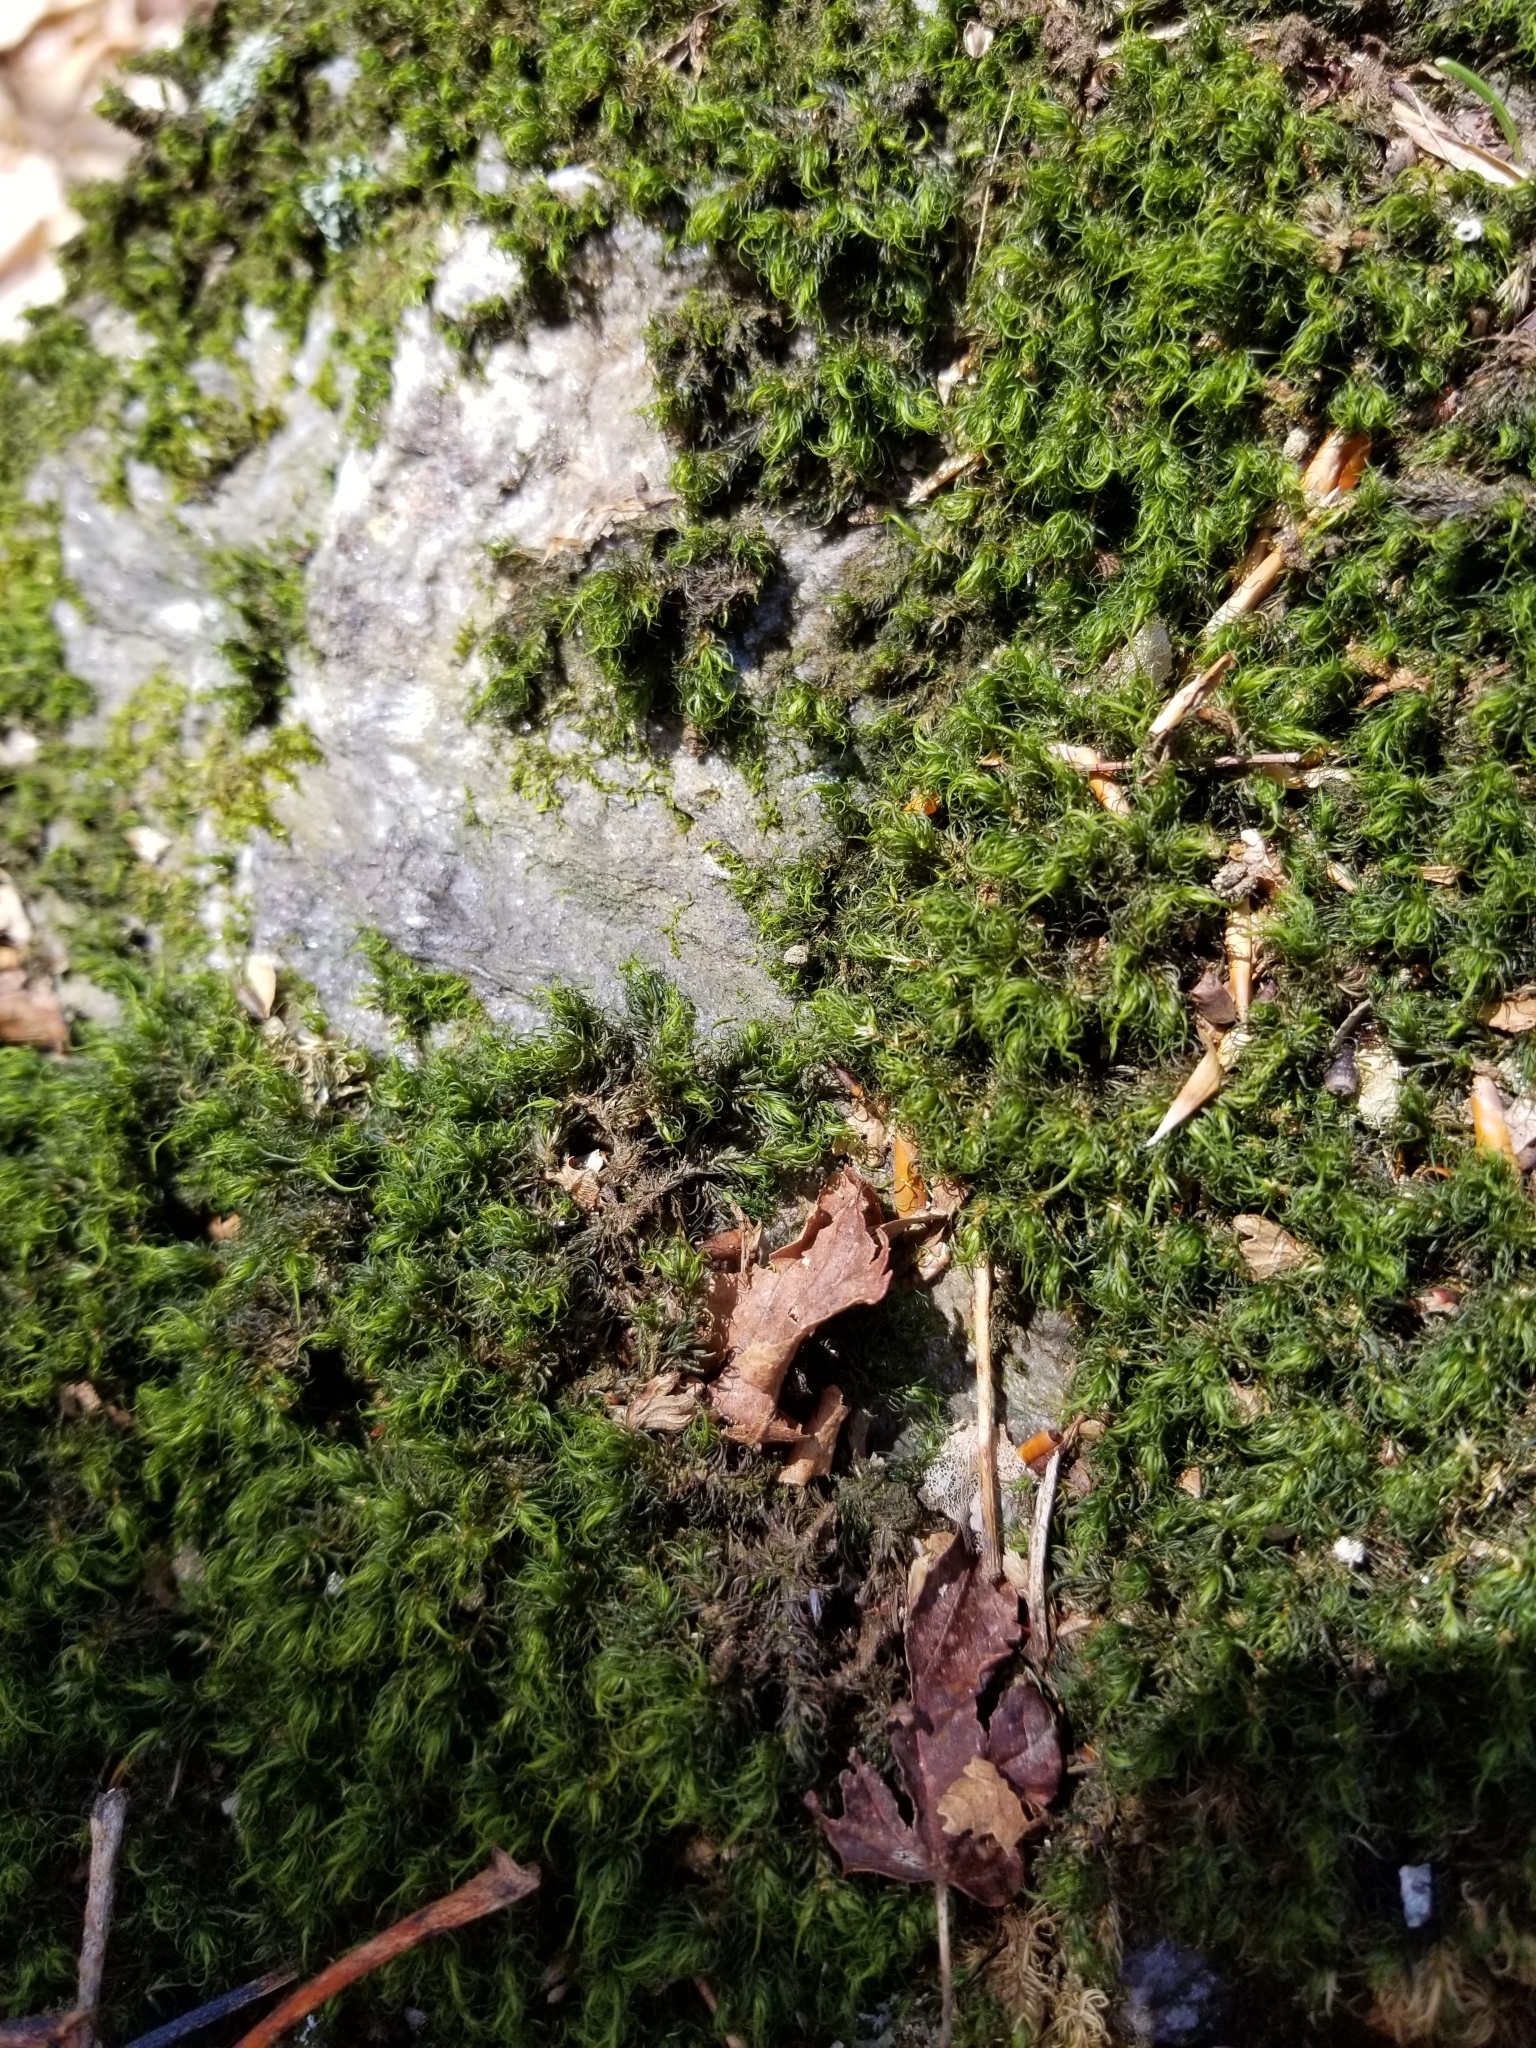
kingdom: Plantae
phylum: Bryophyta
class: Bryopsida
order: Dicranales
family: Dicranaceae
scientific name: Dicranaceae
